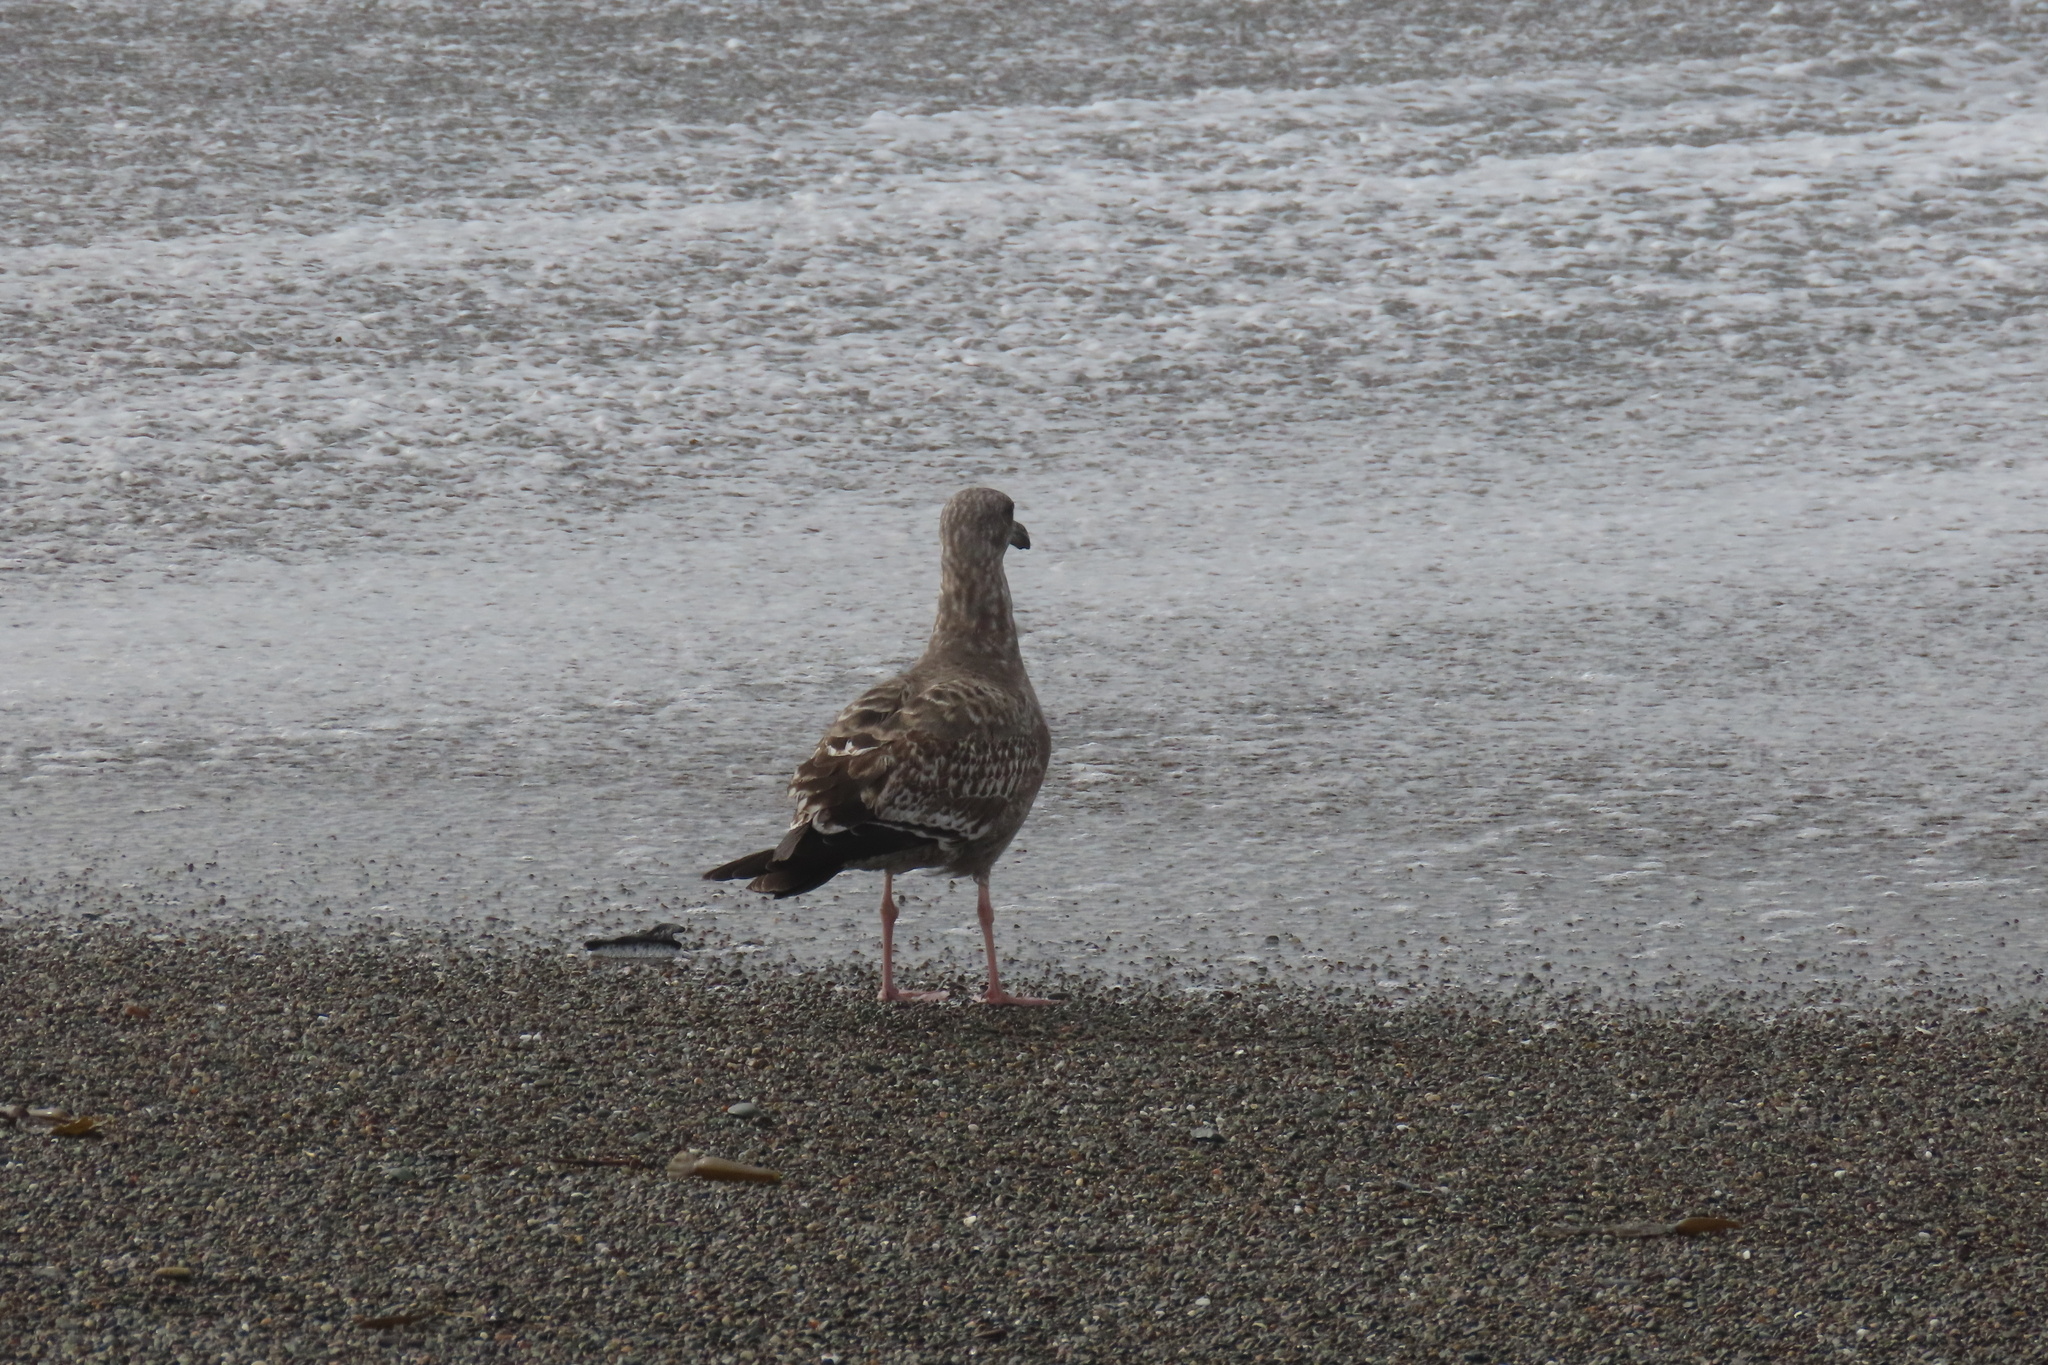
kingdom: Animalia
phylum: Chordata
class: Aves
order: Charadriiformes
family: Laridae
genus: Larus
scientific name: Larus occidentalis
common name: Western gull
